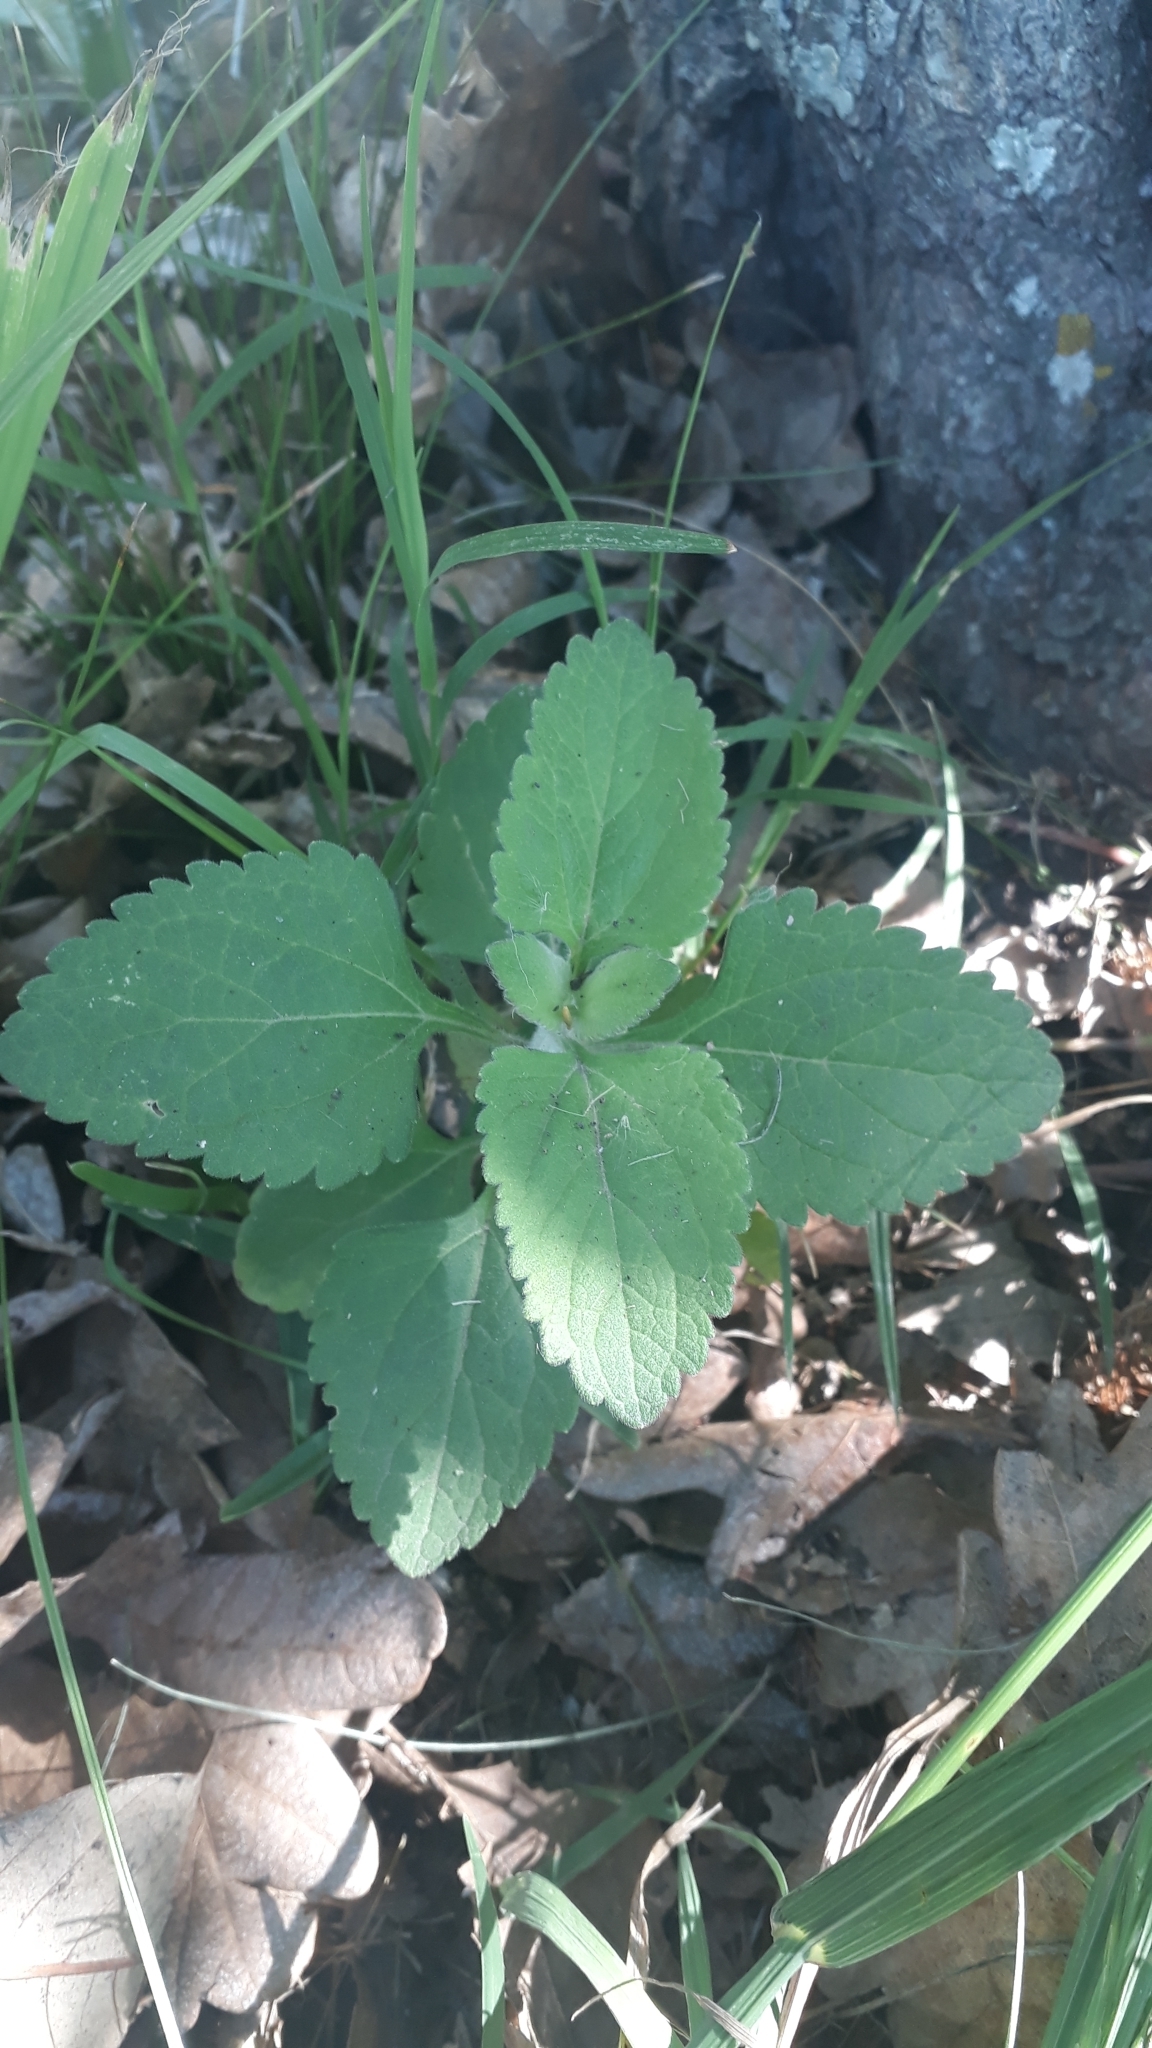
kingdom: Plantae
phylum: Tracheophyta
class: Magnoliopsida
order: Asterales
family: Asteraceae
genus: Austroeupatorium
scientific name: Austroeupatorium inulifolium
